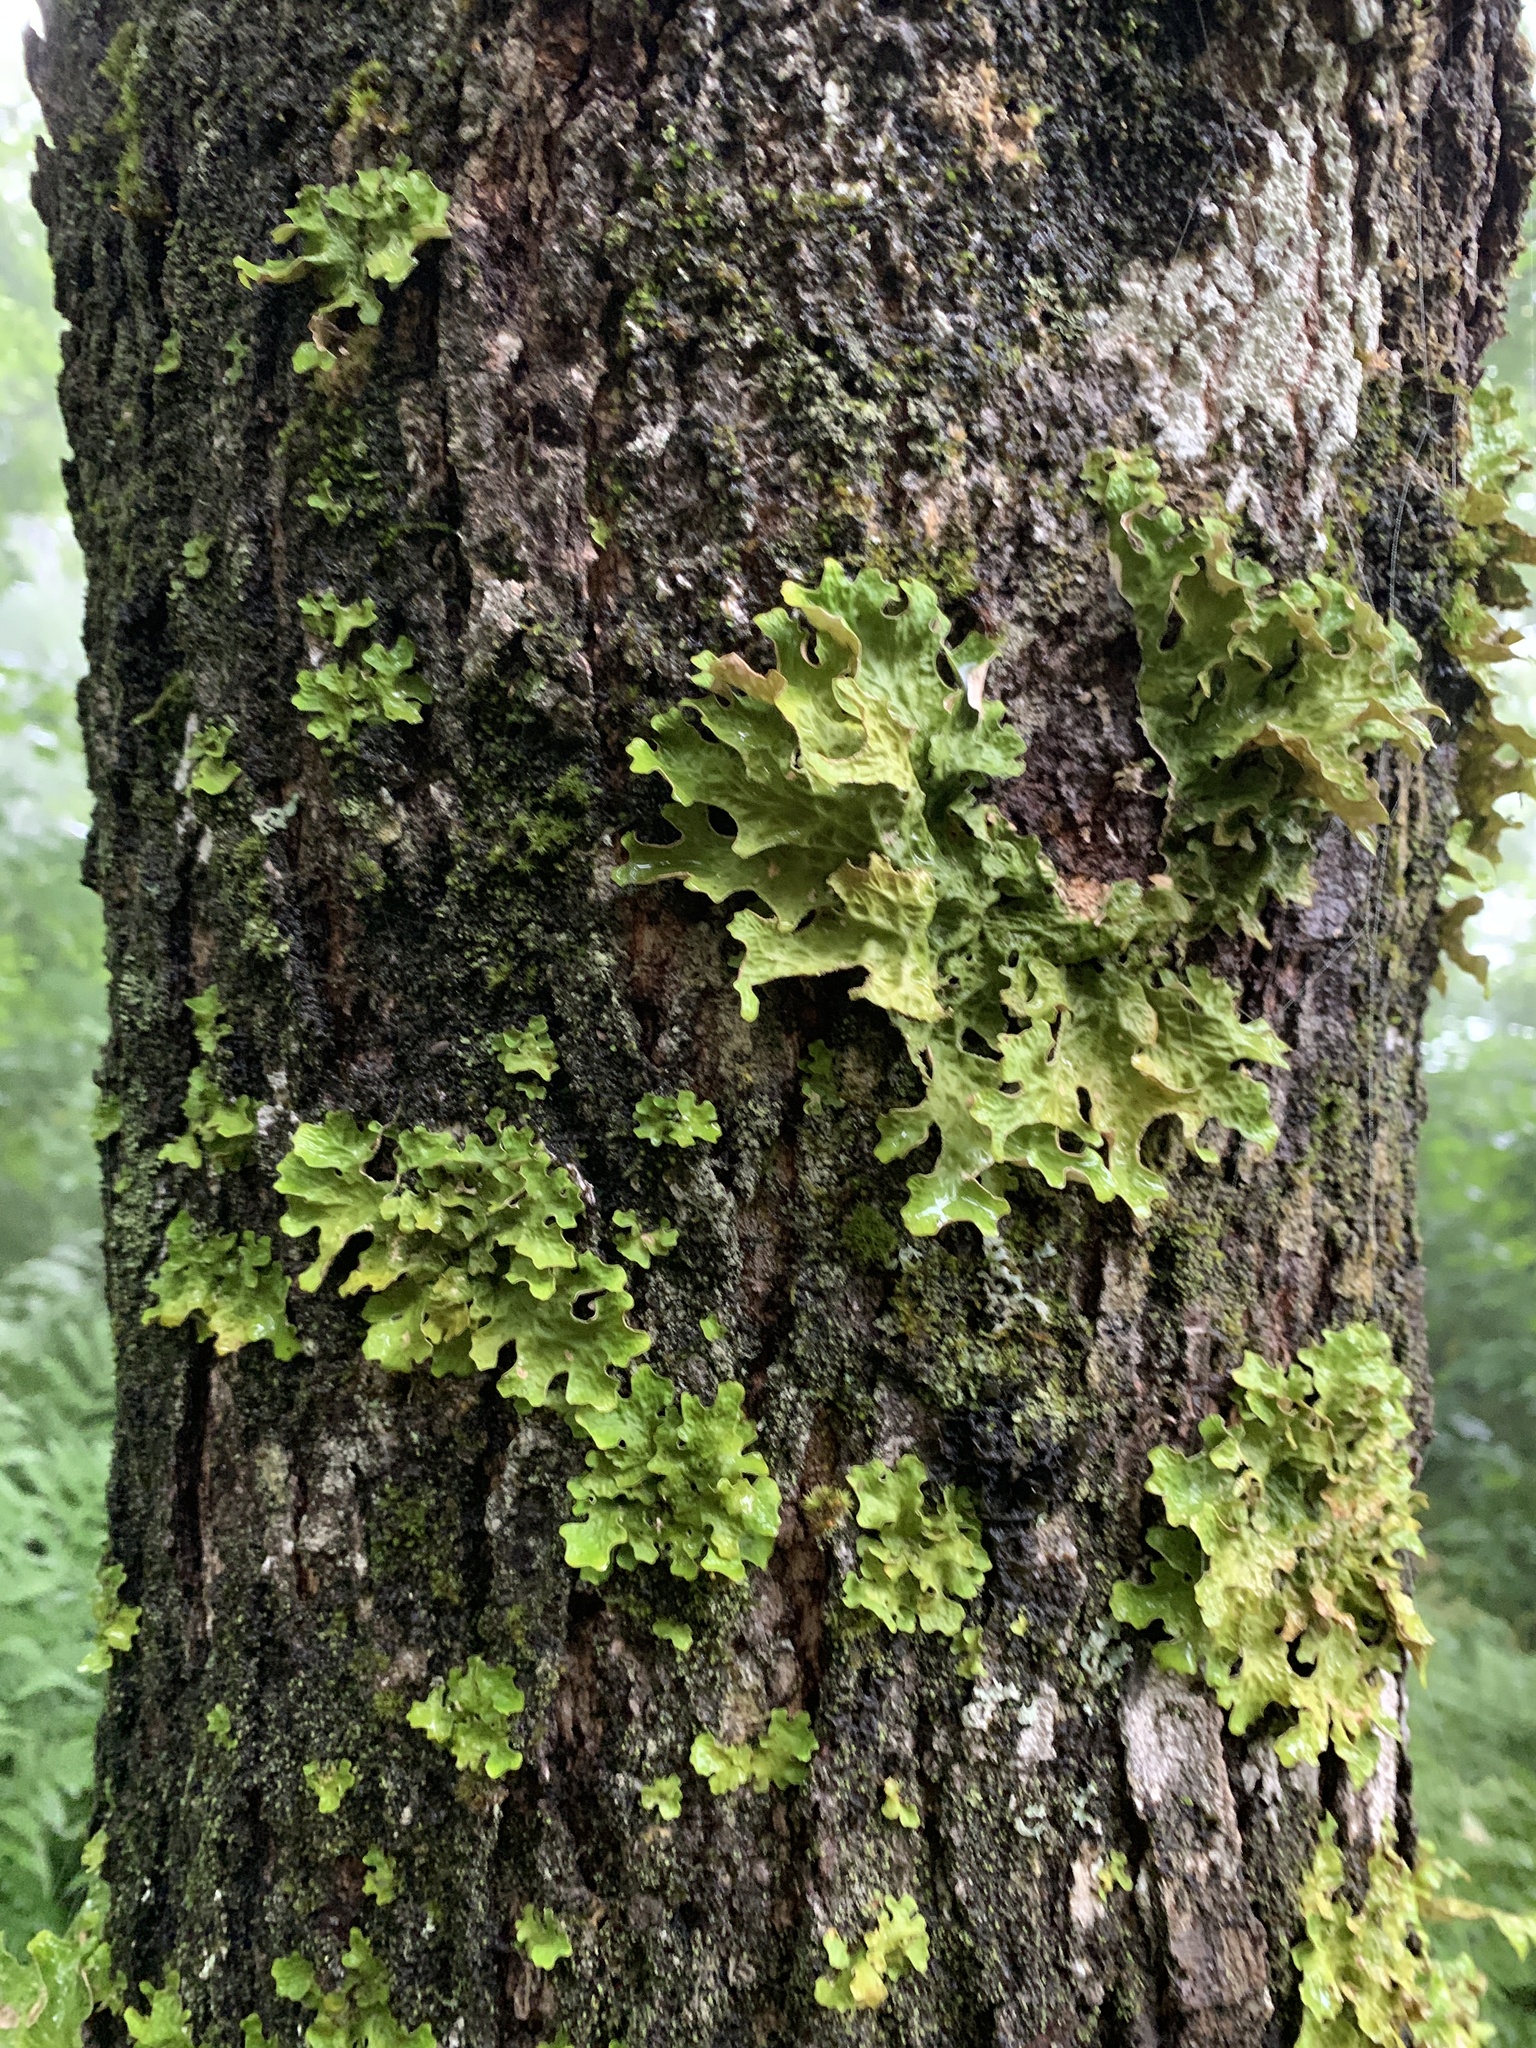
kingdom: Fungi
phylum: Ascomycota
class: Lecanoromycetes
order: Peltigerales
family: Lobariaceae
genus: Lobaria
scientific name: Lobaria pulmonaria
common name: Lungwort
